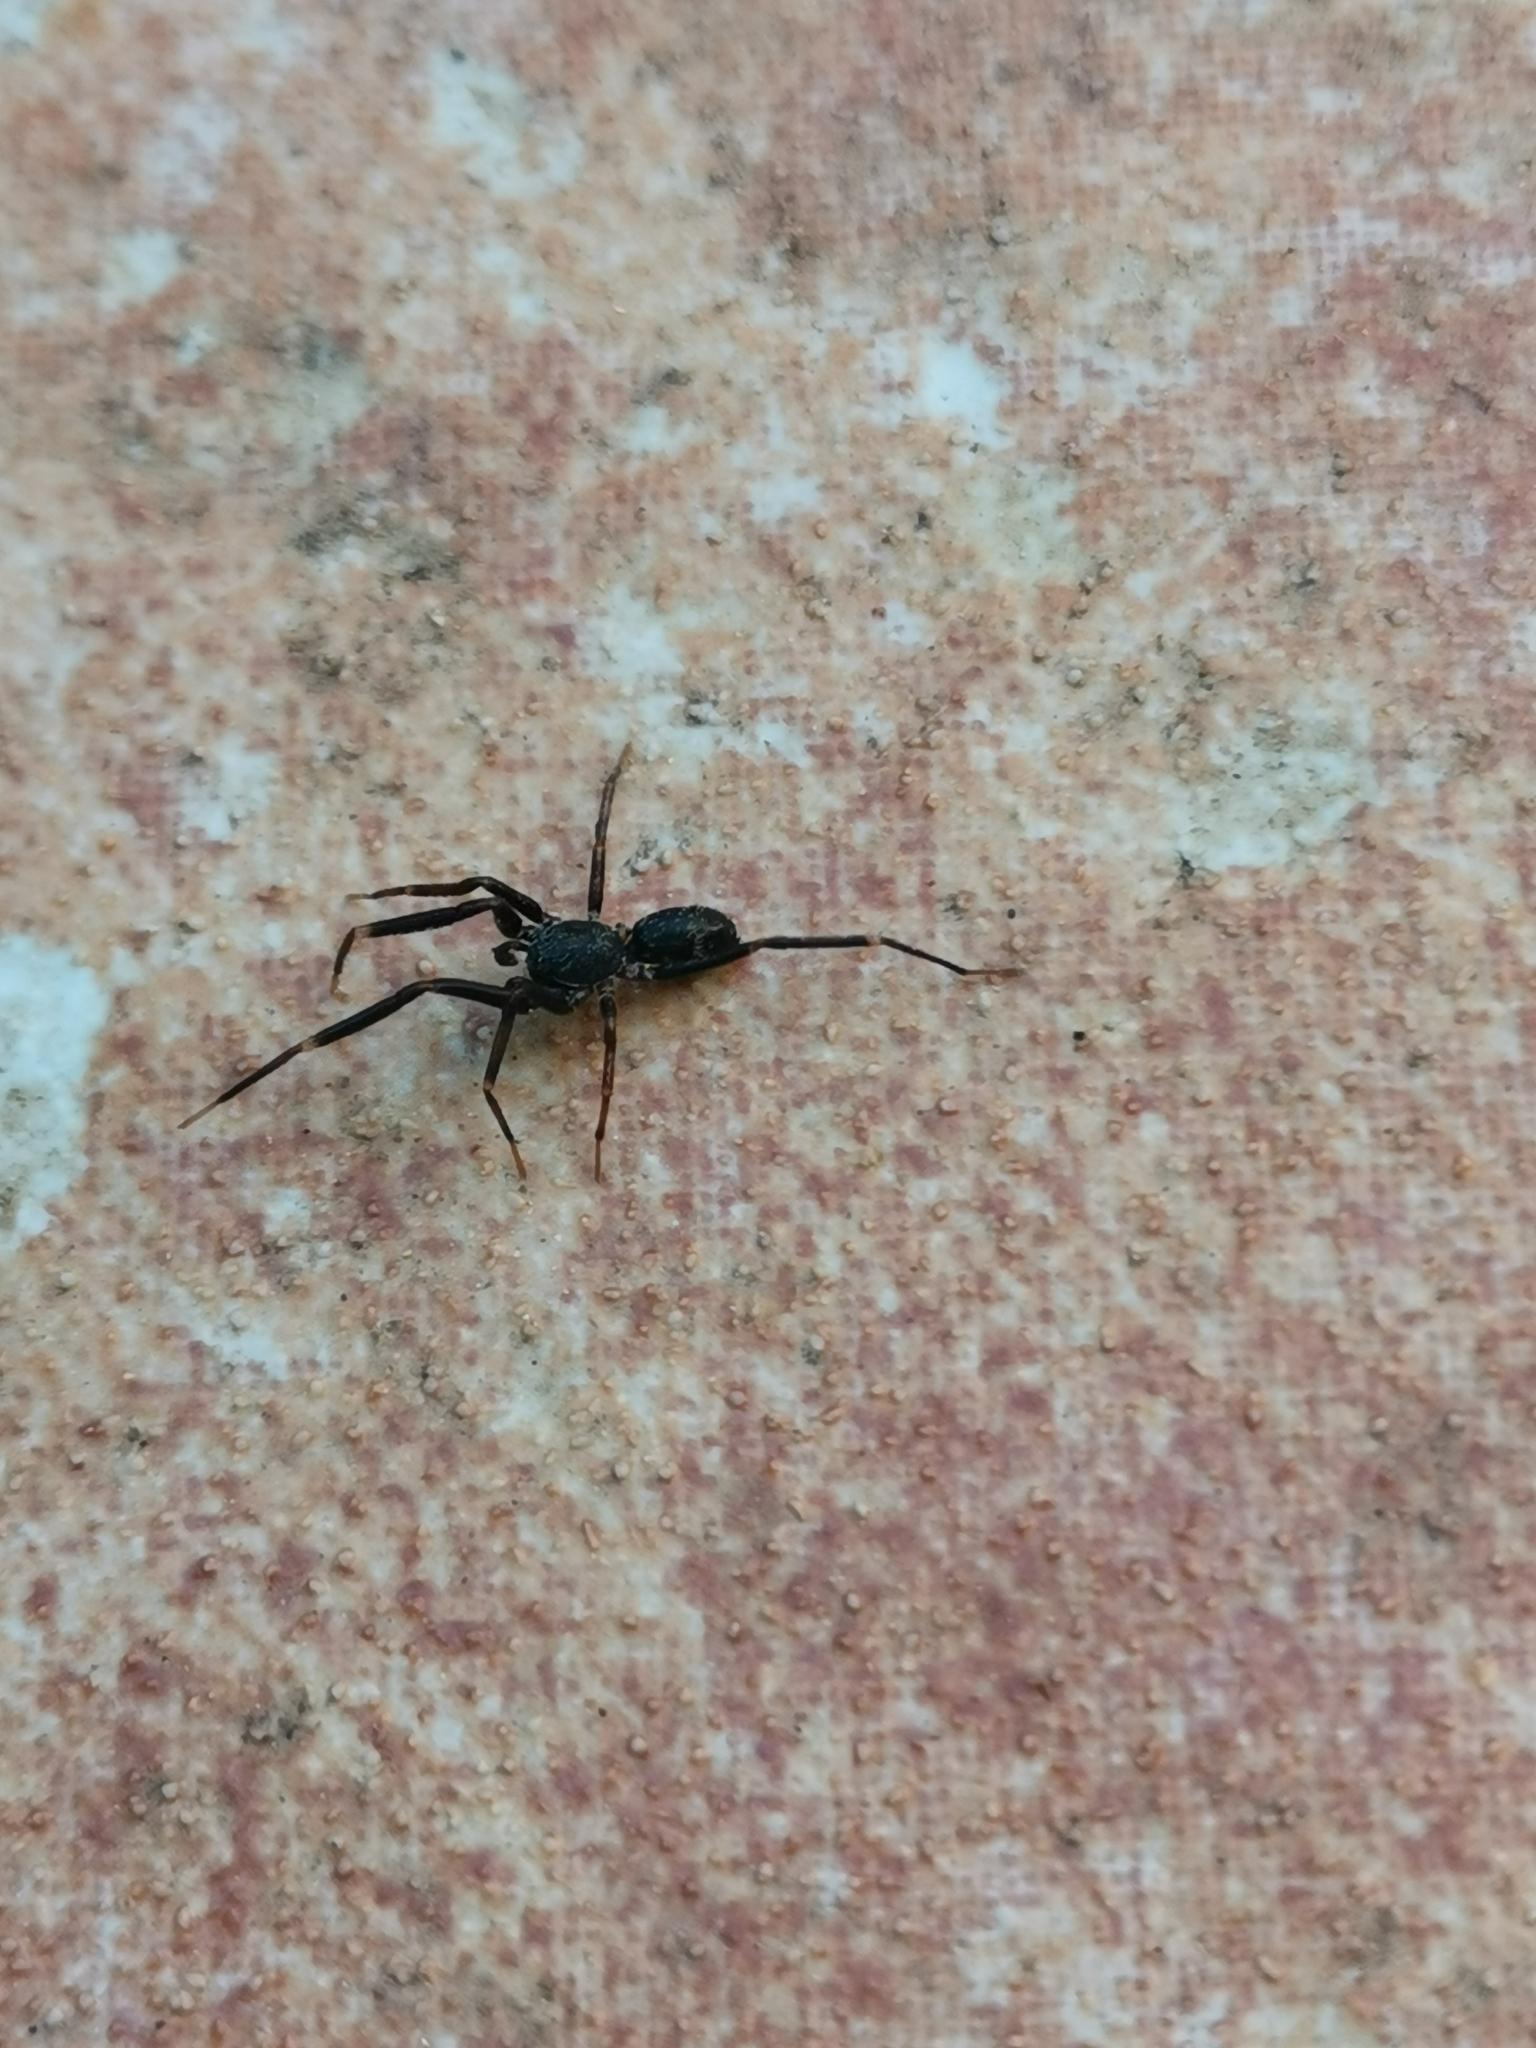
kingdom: Animalia
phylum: Arthropoda
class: Arachnida
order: Araneae
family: Phrurolithidae
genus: Liophrurillus
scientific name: Liophrurillus flavitarsis
